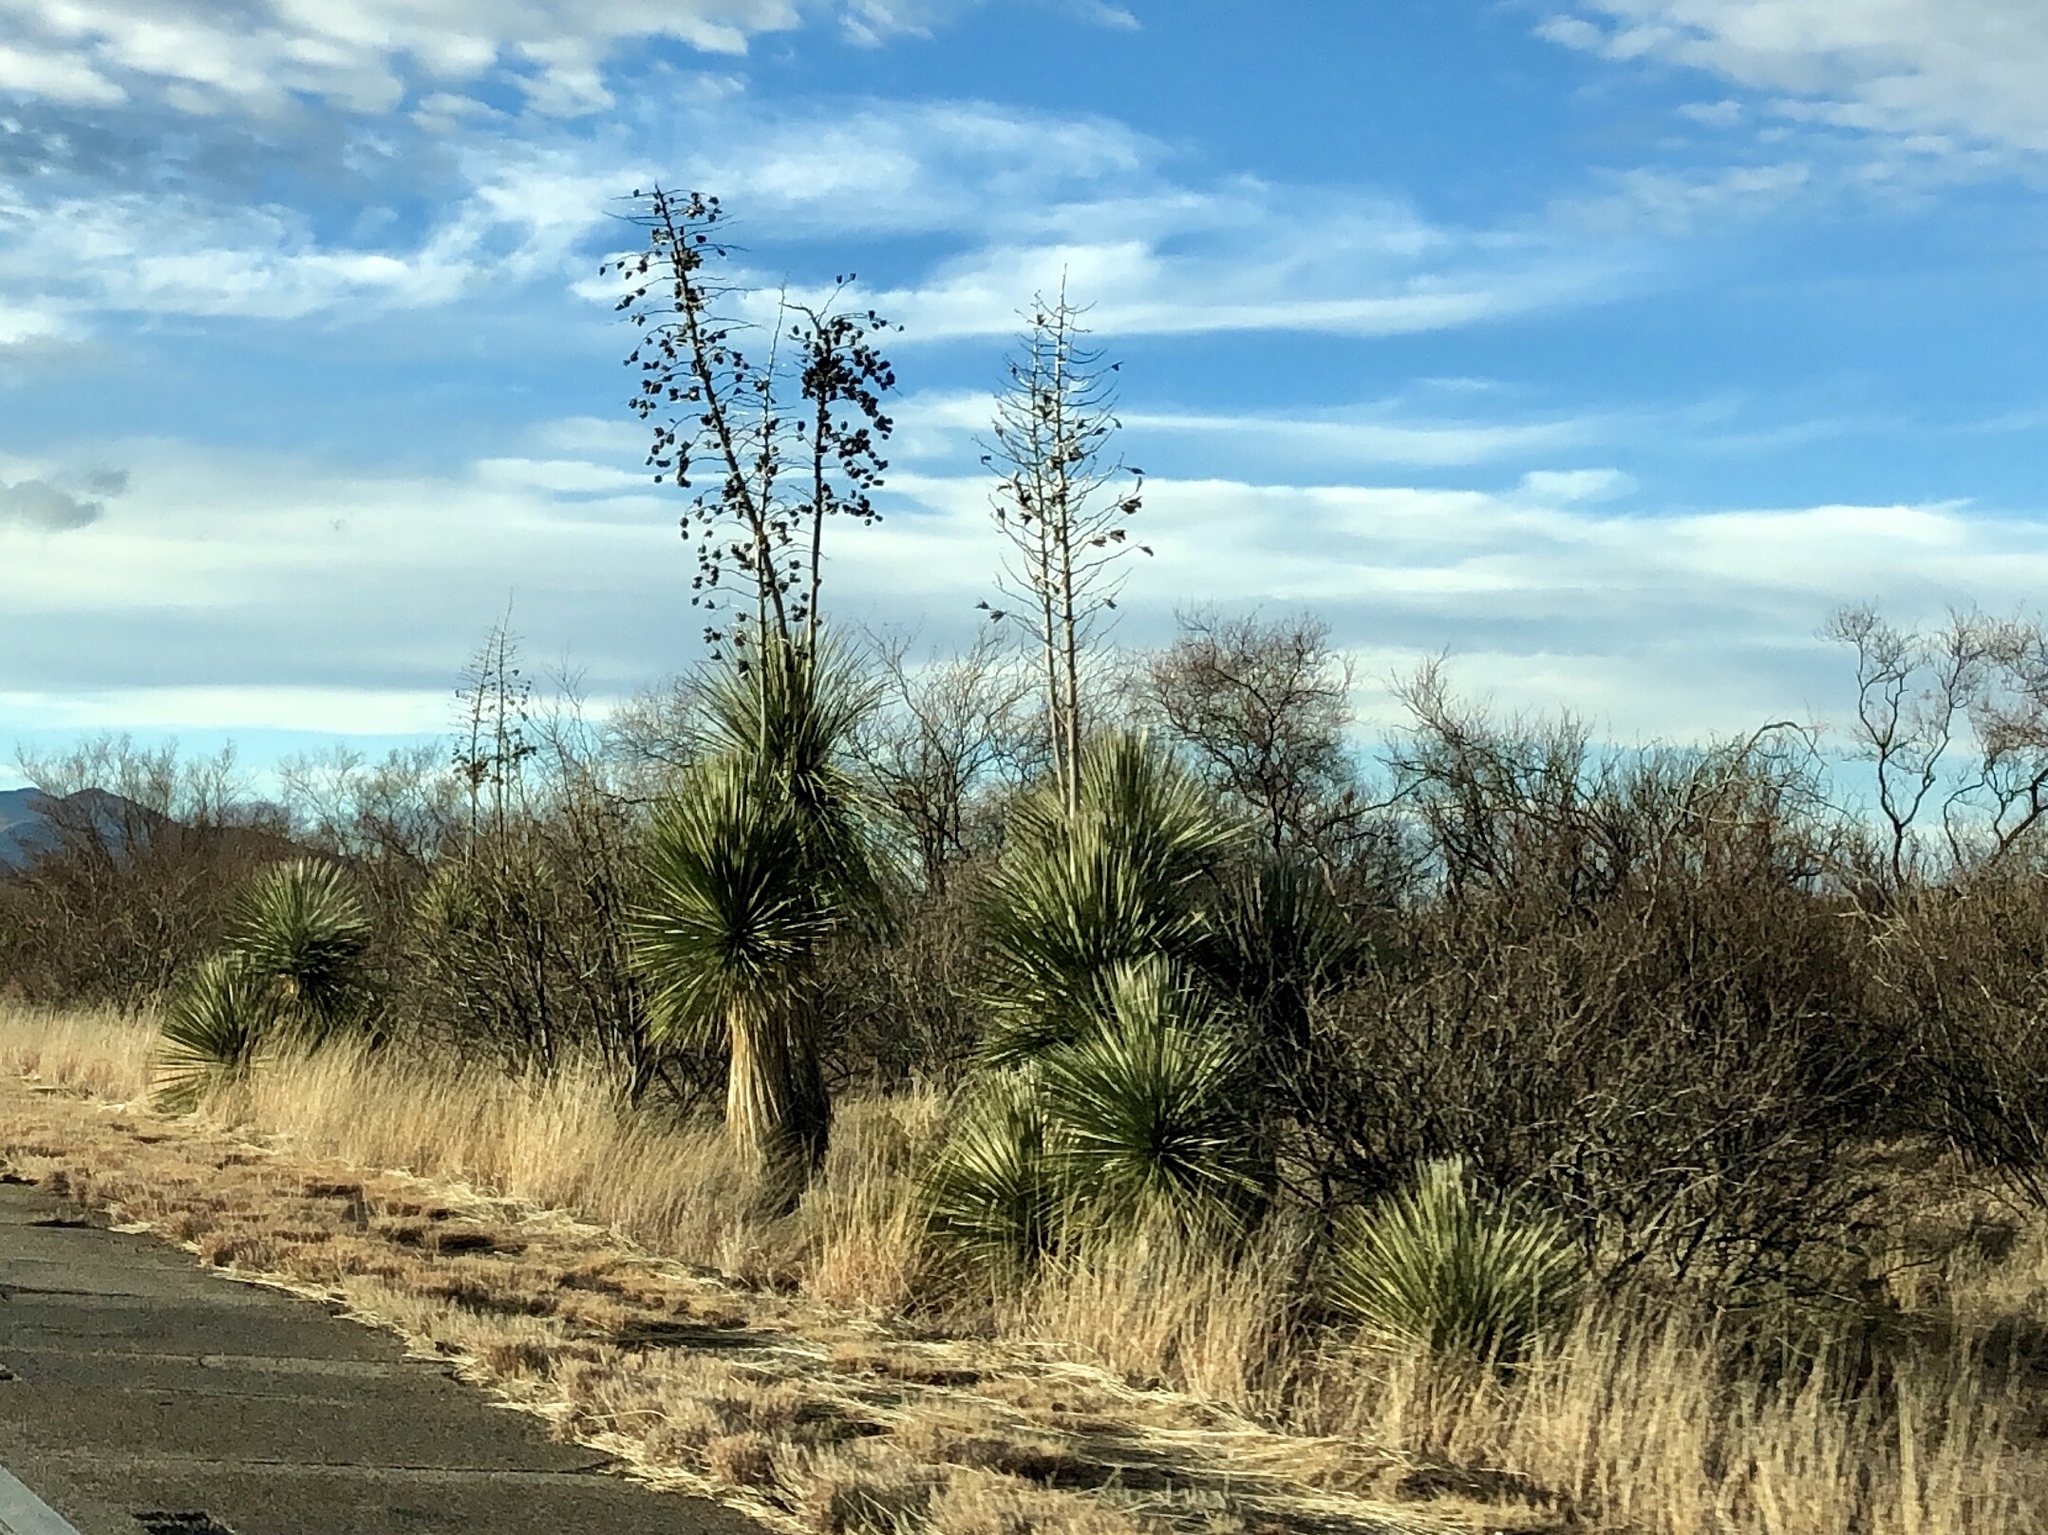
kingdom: Plantae
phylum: Tracheophyta
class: Liliopsida
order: Asparagales
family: Asparagaceae
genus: Yucca
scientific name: Yucca elata
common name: Palmella
